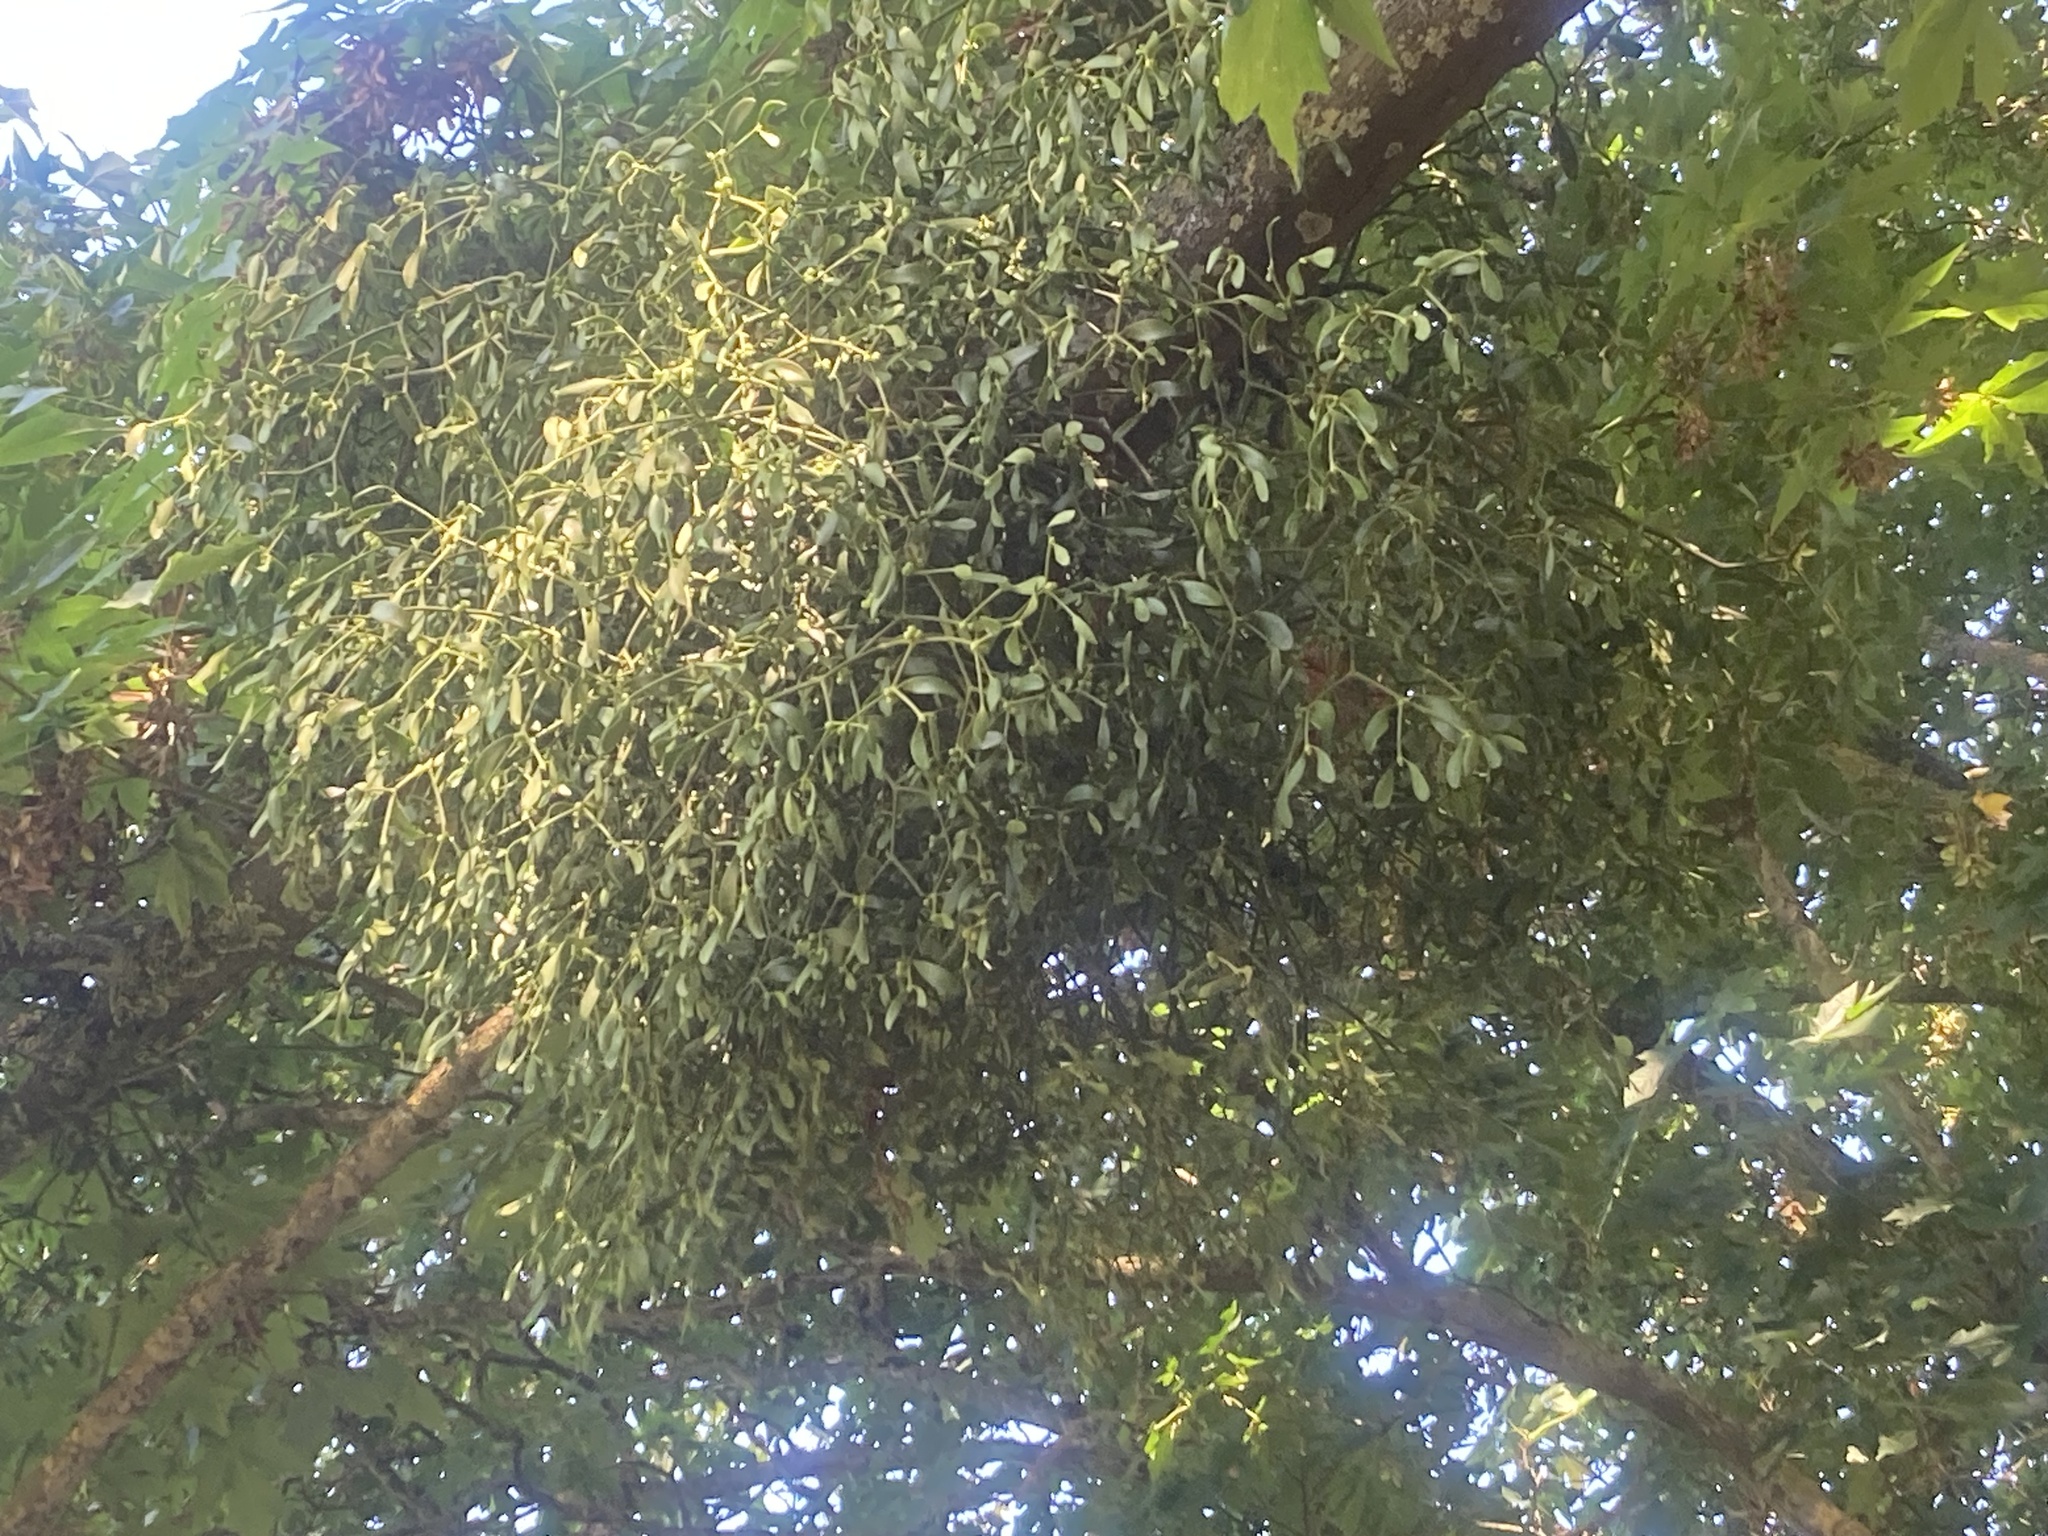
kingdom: Plantae
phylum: Tracheophyta
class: Magnoliopsida
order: Santalales
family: Viscaceae
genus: Viscum
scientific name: Viscum album
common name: Mistletoe
